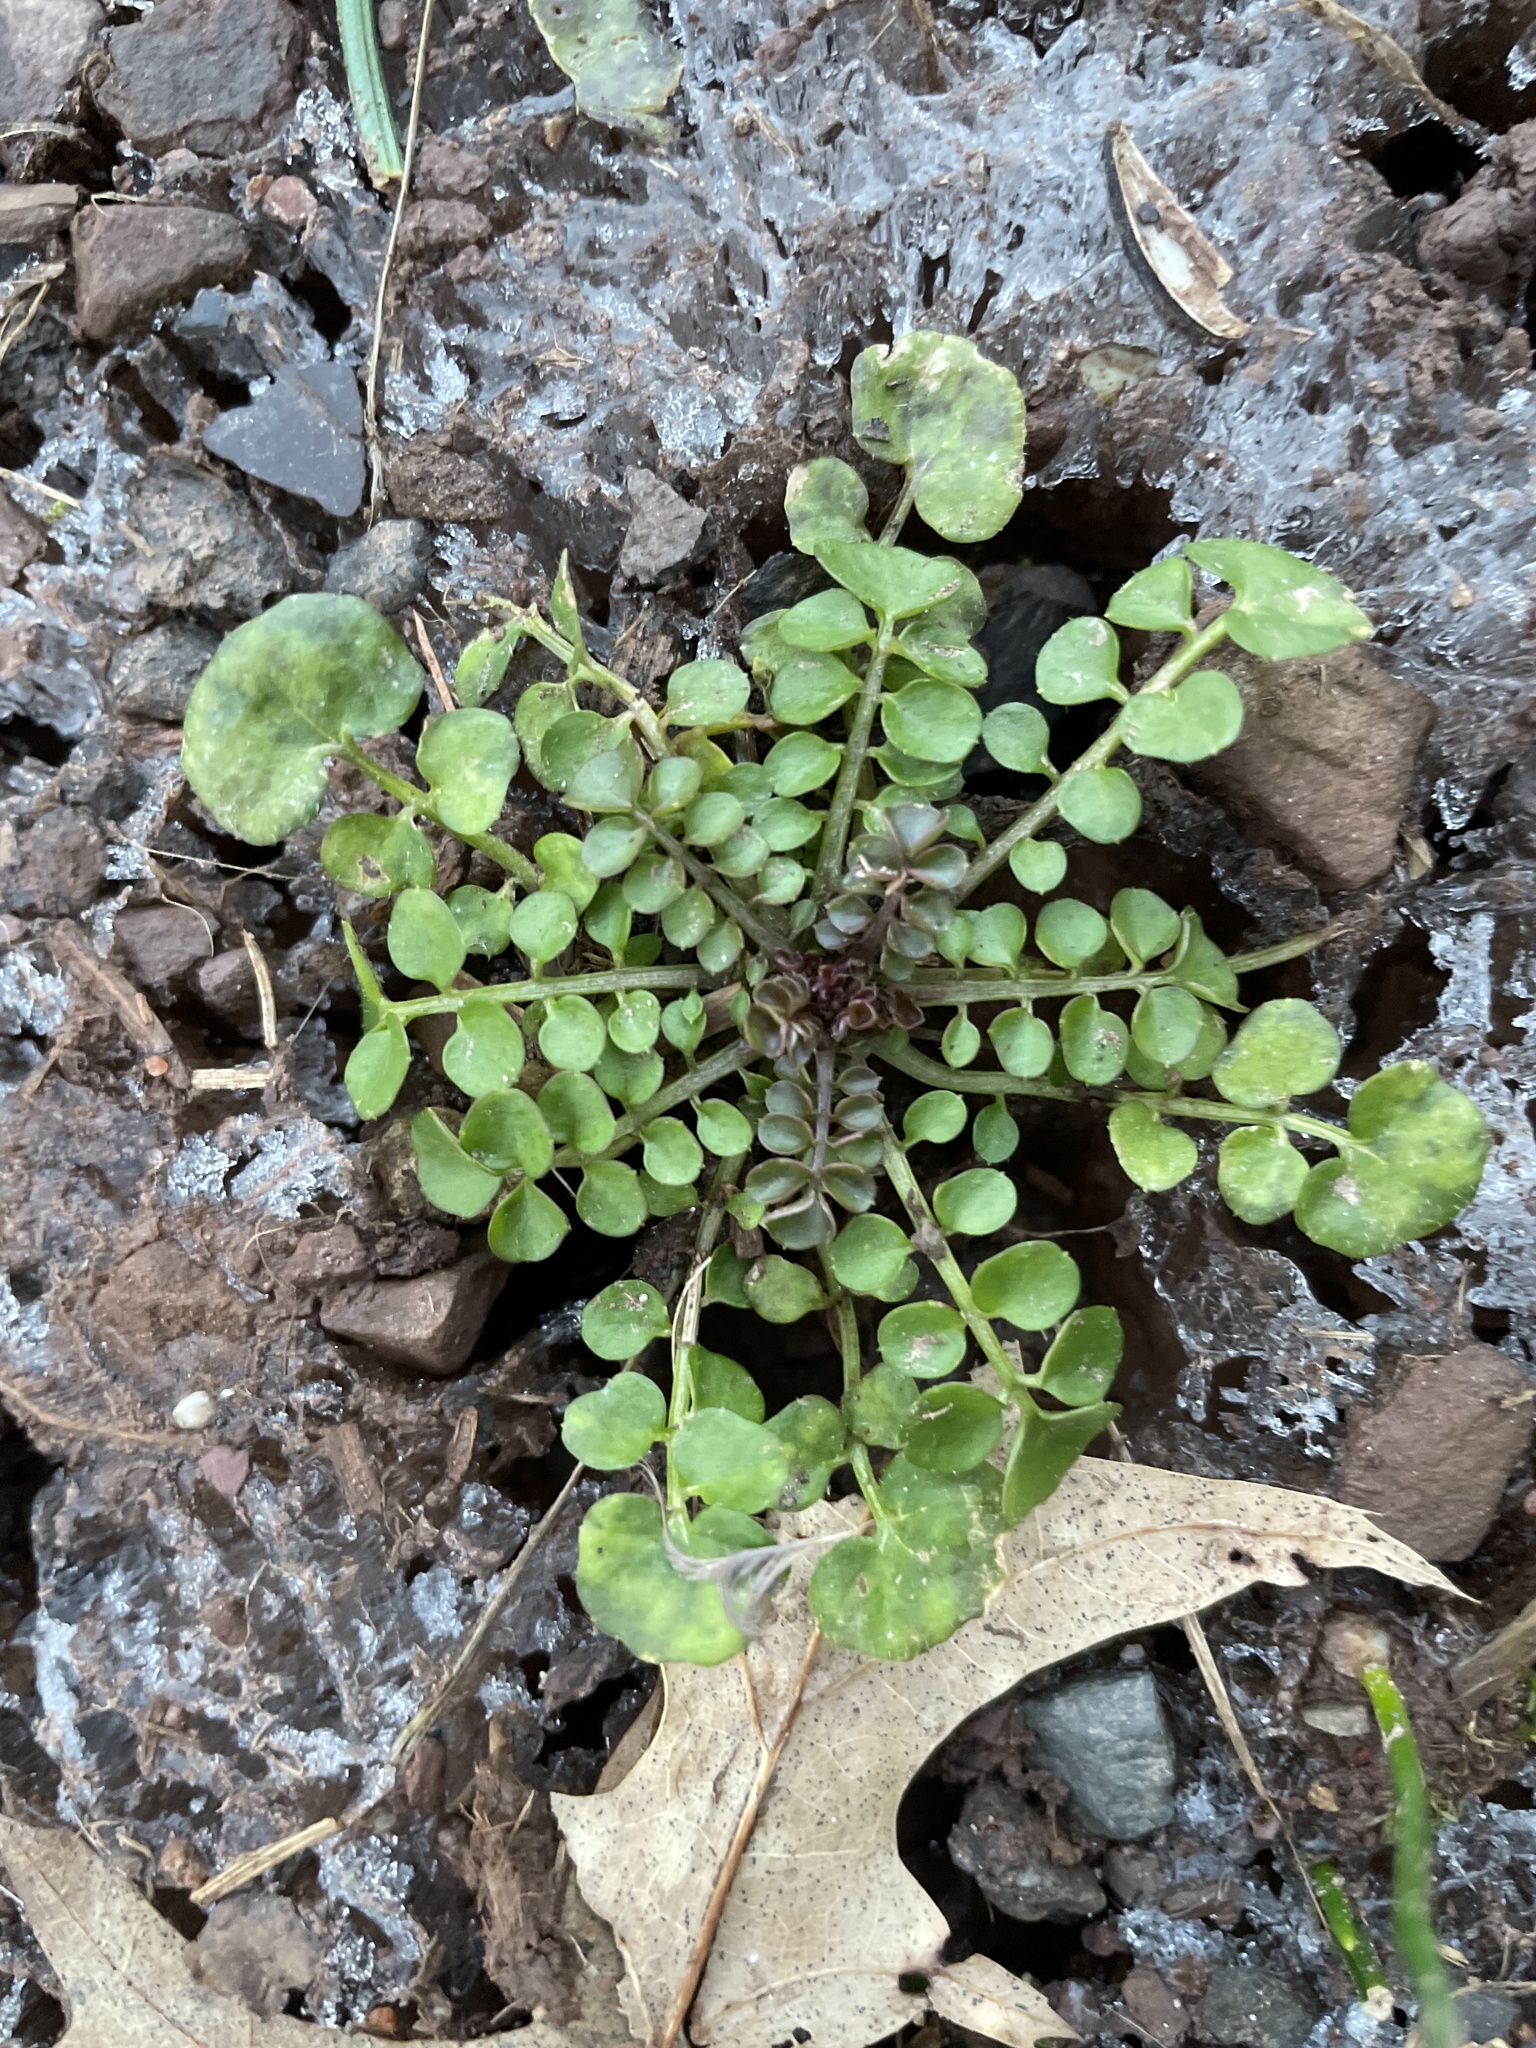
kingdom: Plantae
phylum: Tracheophyta
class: Magnoliopsida
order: Brassicales
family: Brassicaceae
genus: Cardamine
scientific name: Cardamine hirsuta
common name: Hairy bittercress
